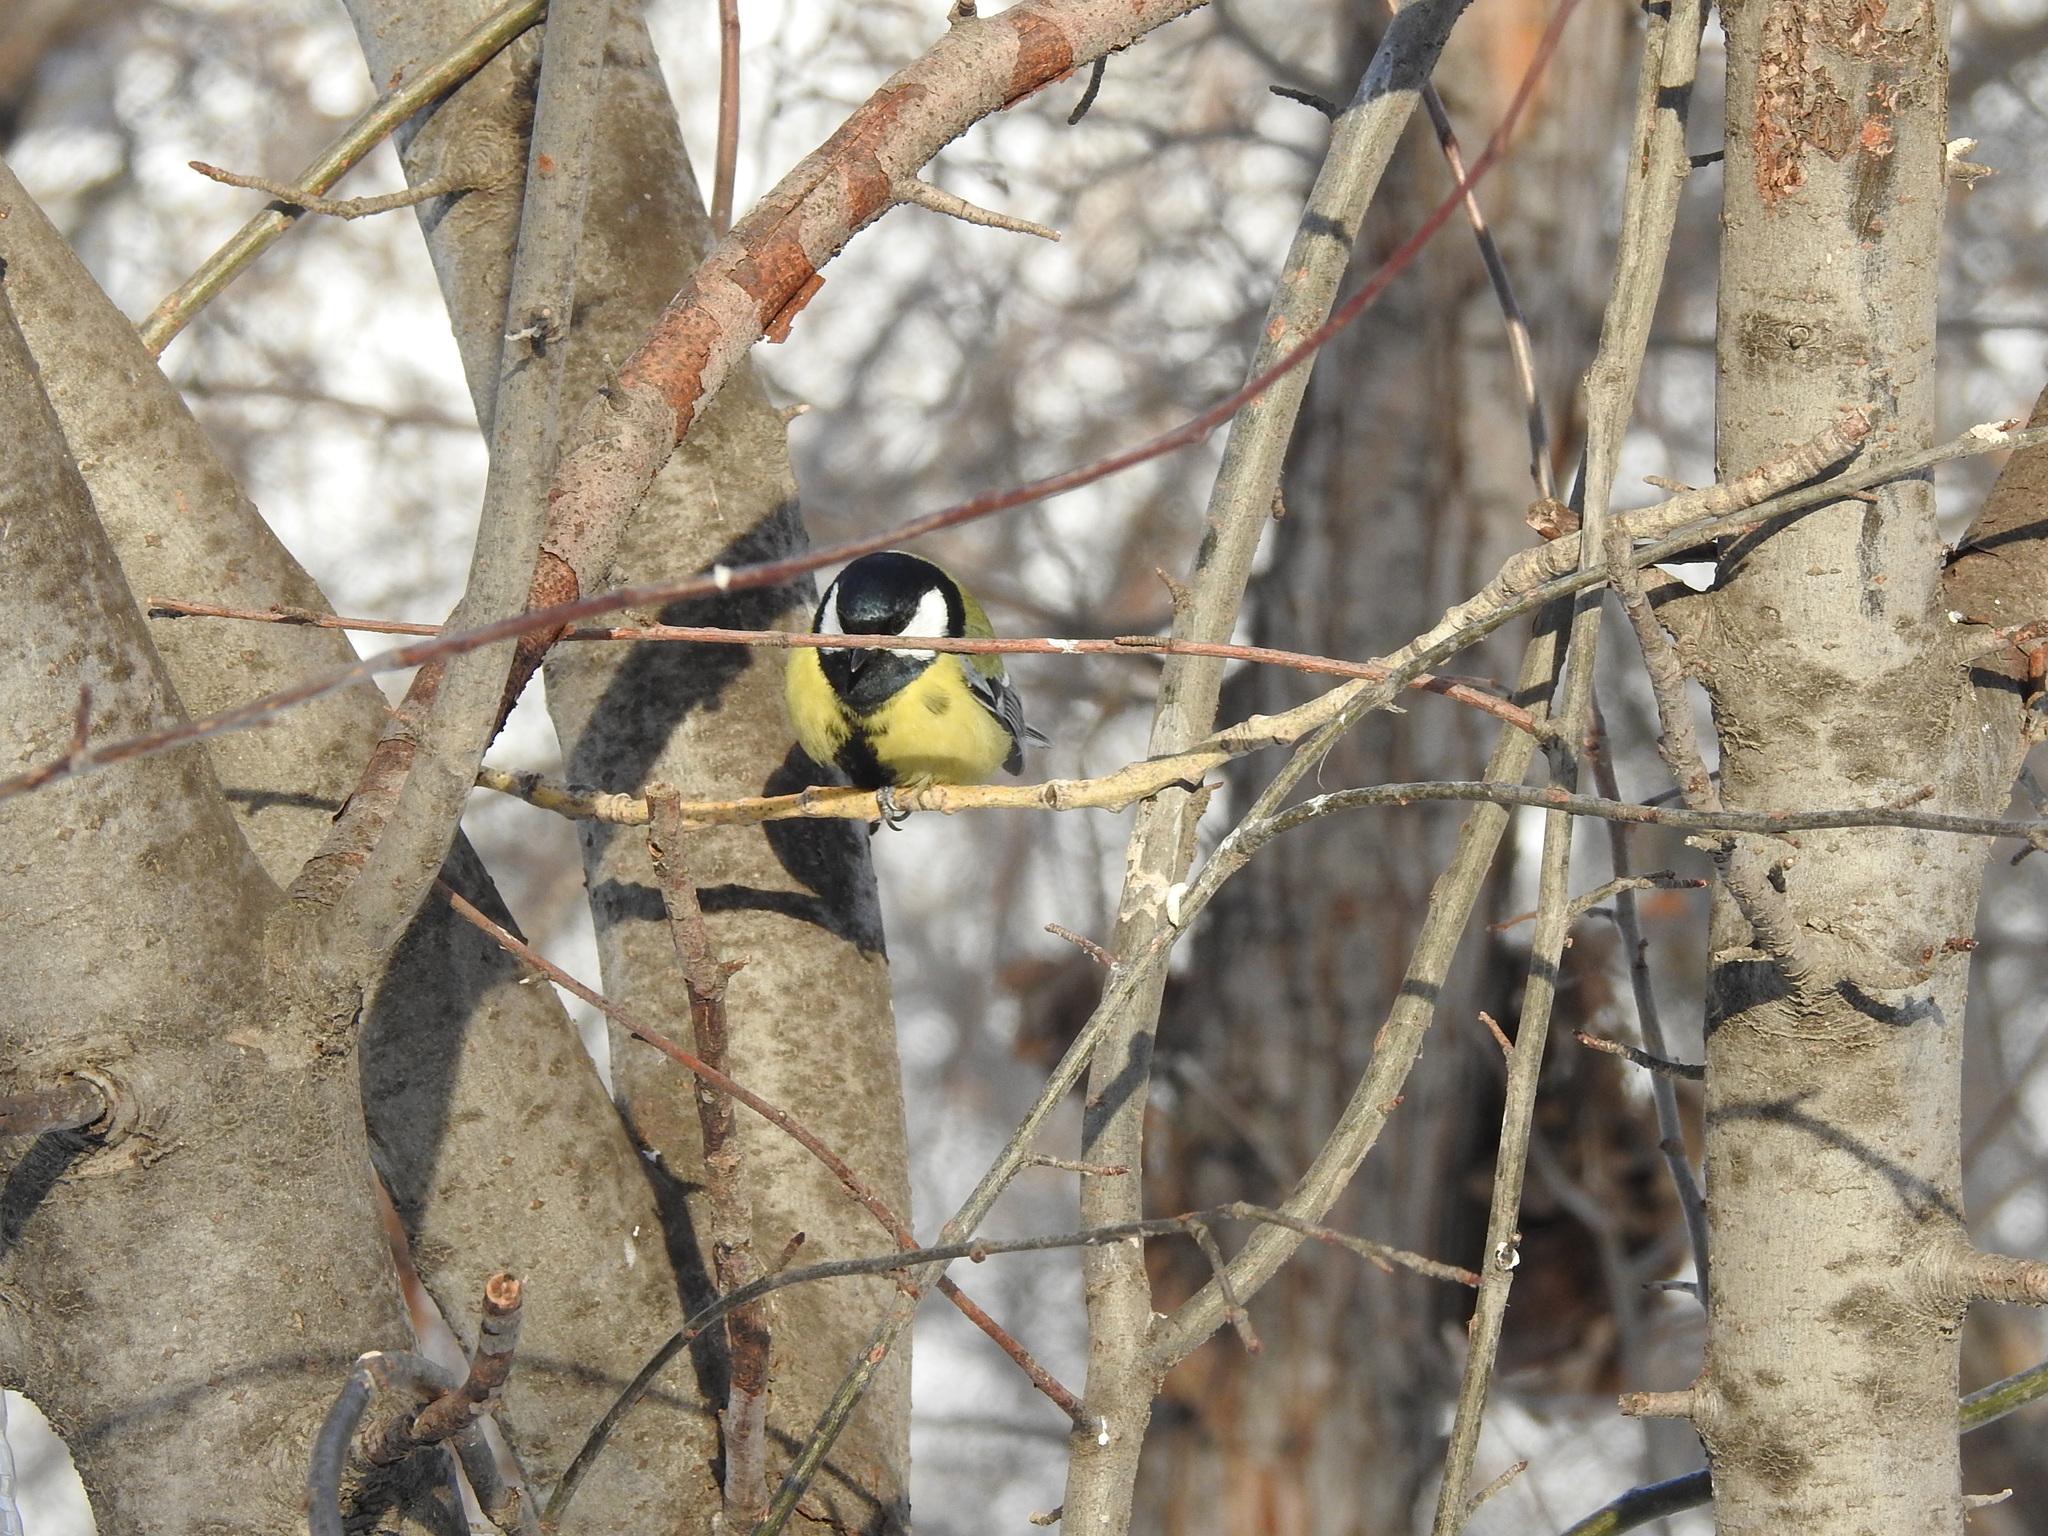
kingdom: Animalia
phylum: Chordata
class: Aves
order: Passeriformes
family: Paridae
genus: Parus
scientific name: Parus major
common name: Great tit
